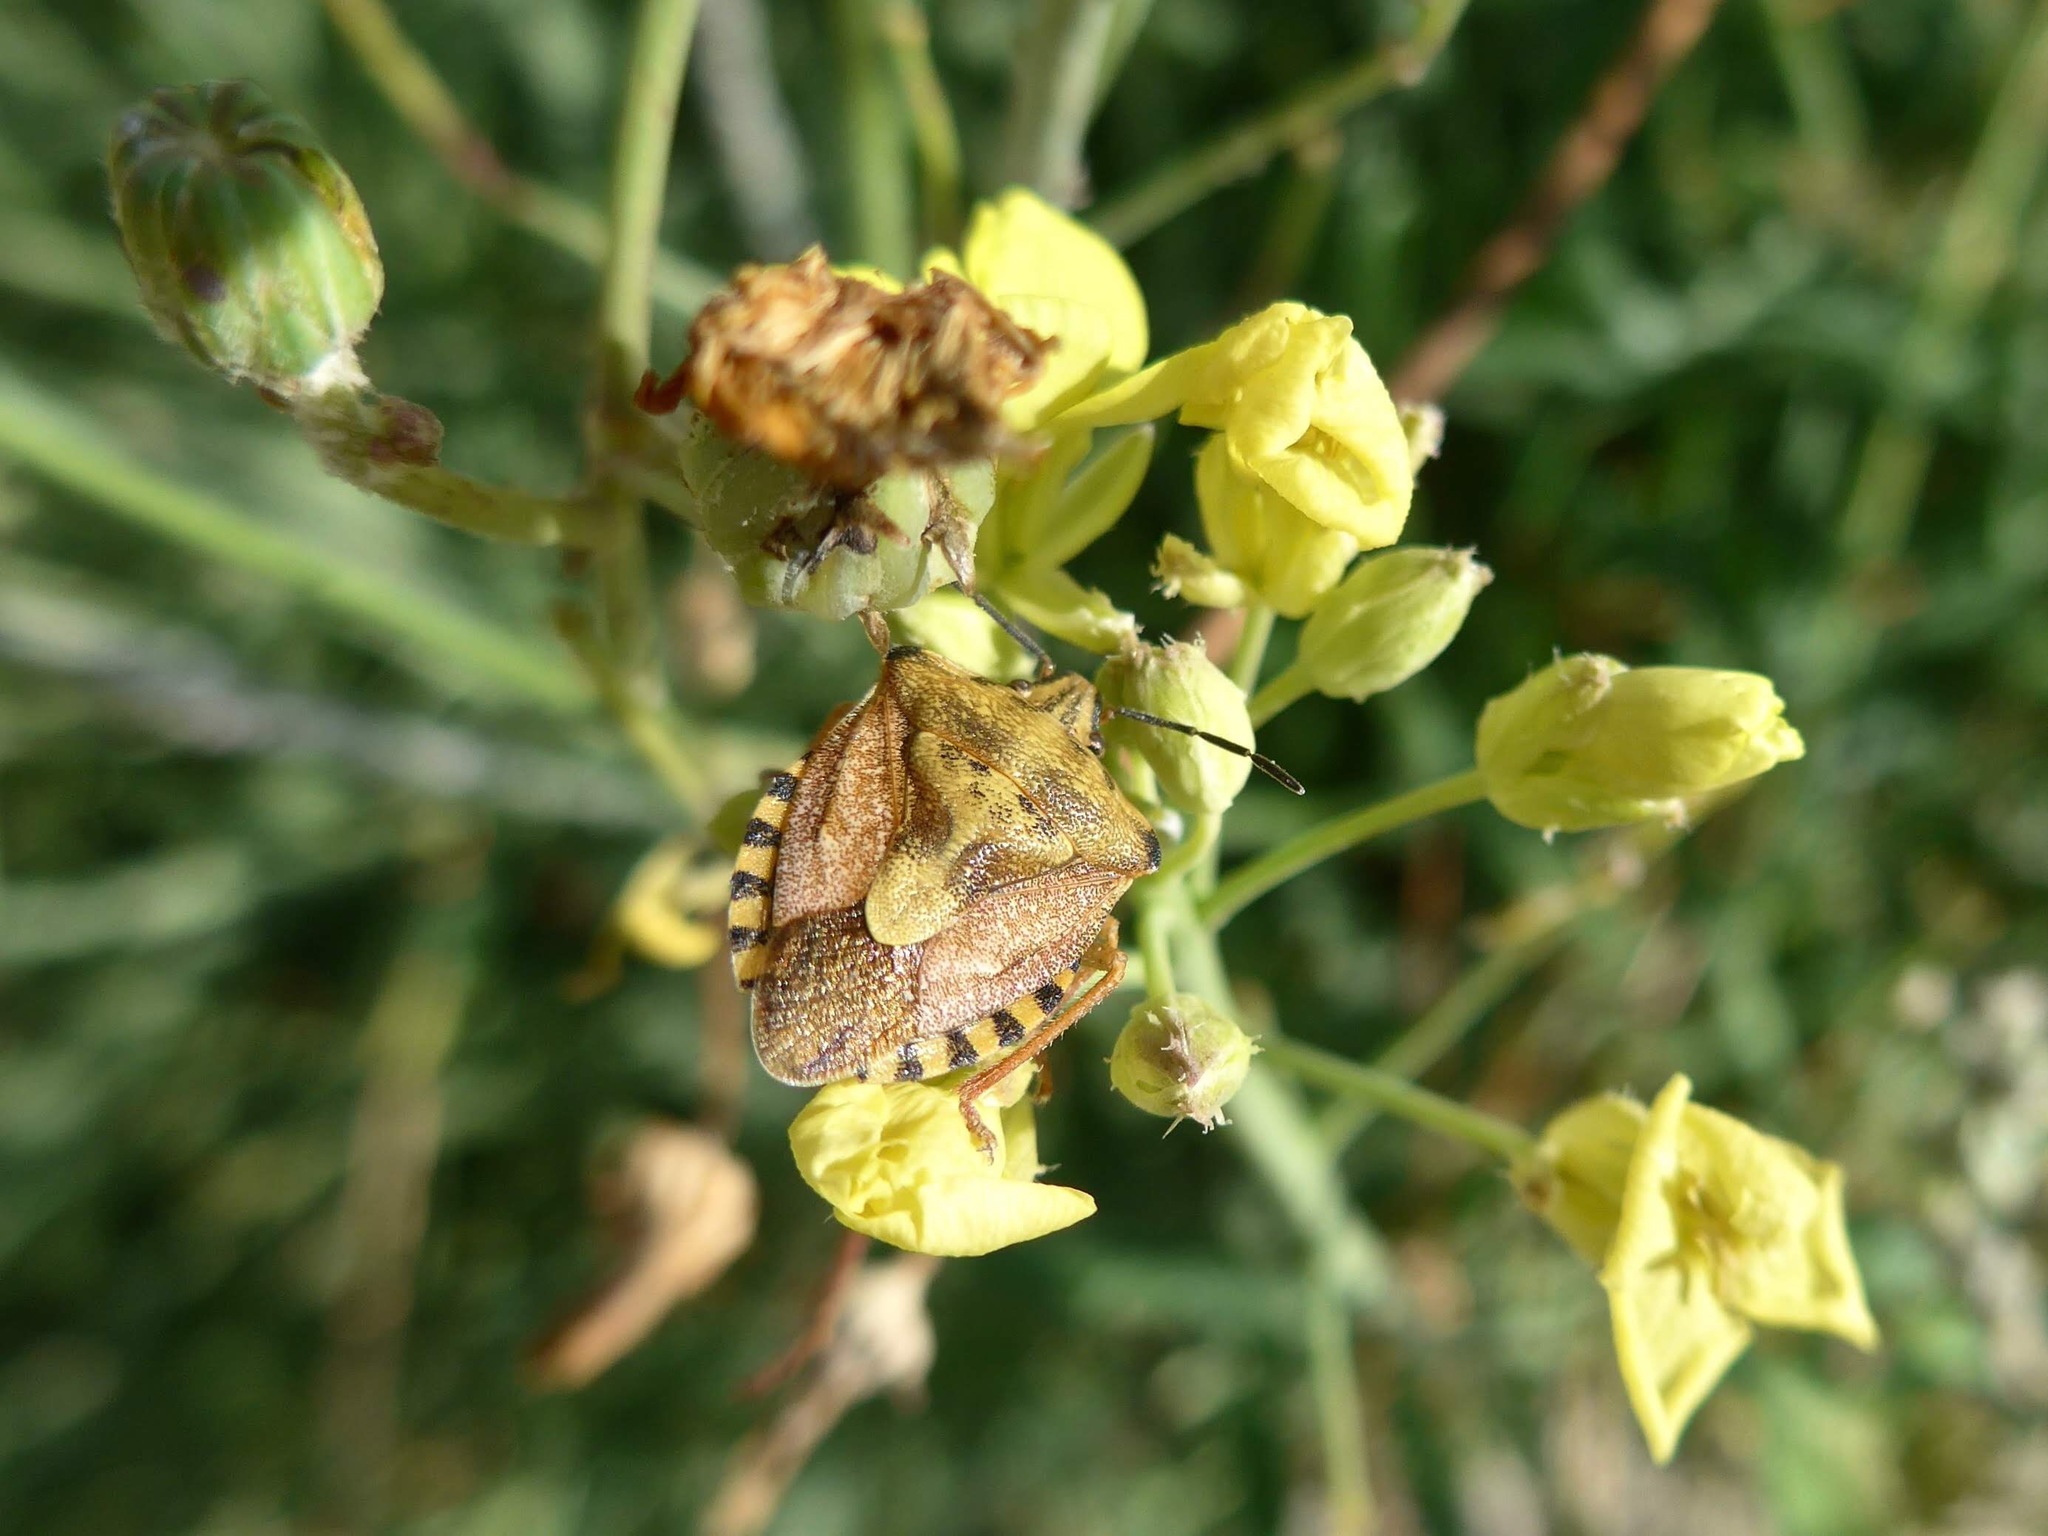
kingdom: Animalia
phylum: Arthropoda
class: Insecta
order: Hemiptera
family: Pentatomidae
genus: Carpocoris
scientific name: Carpocoris purpureipennis
